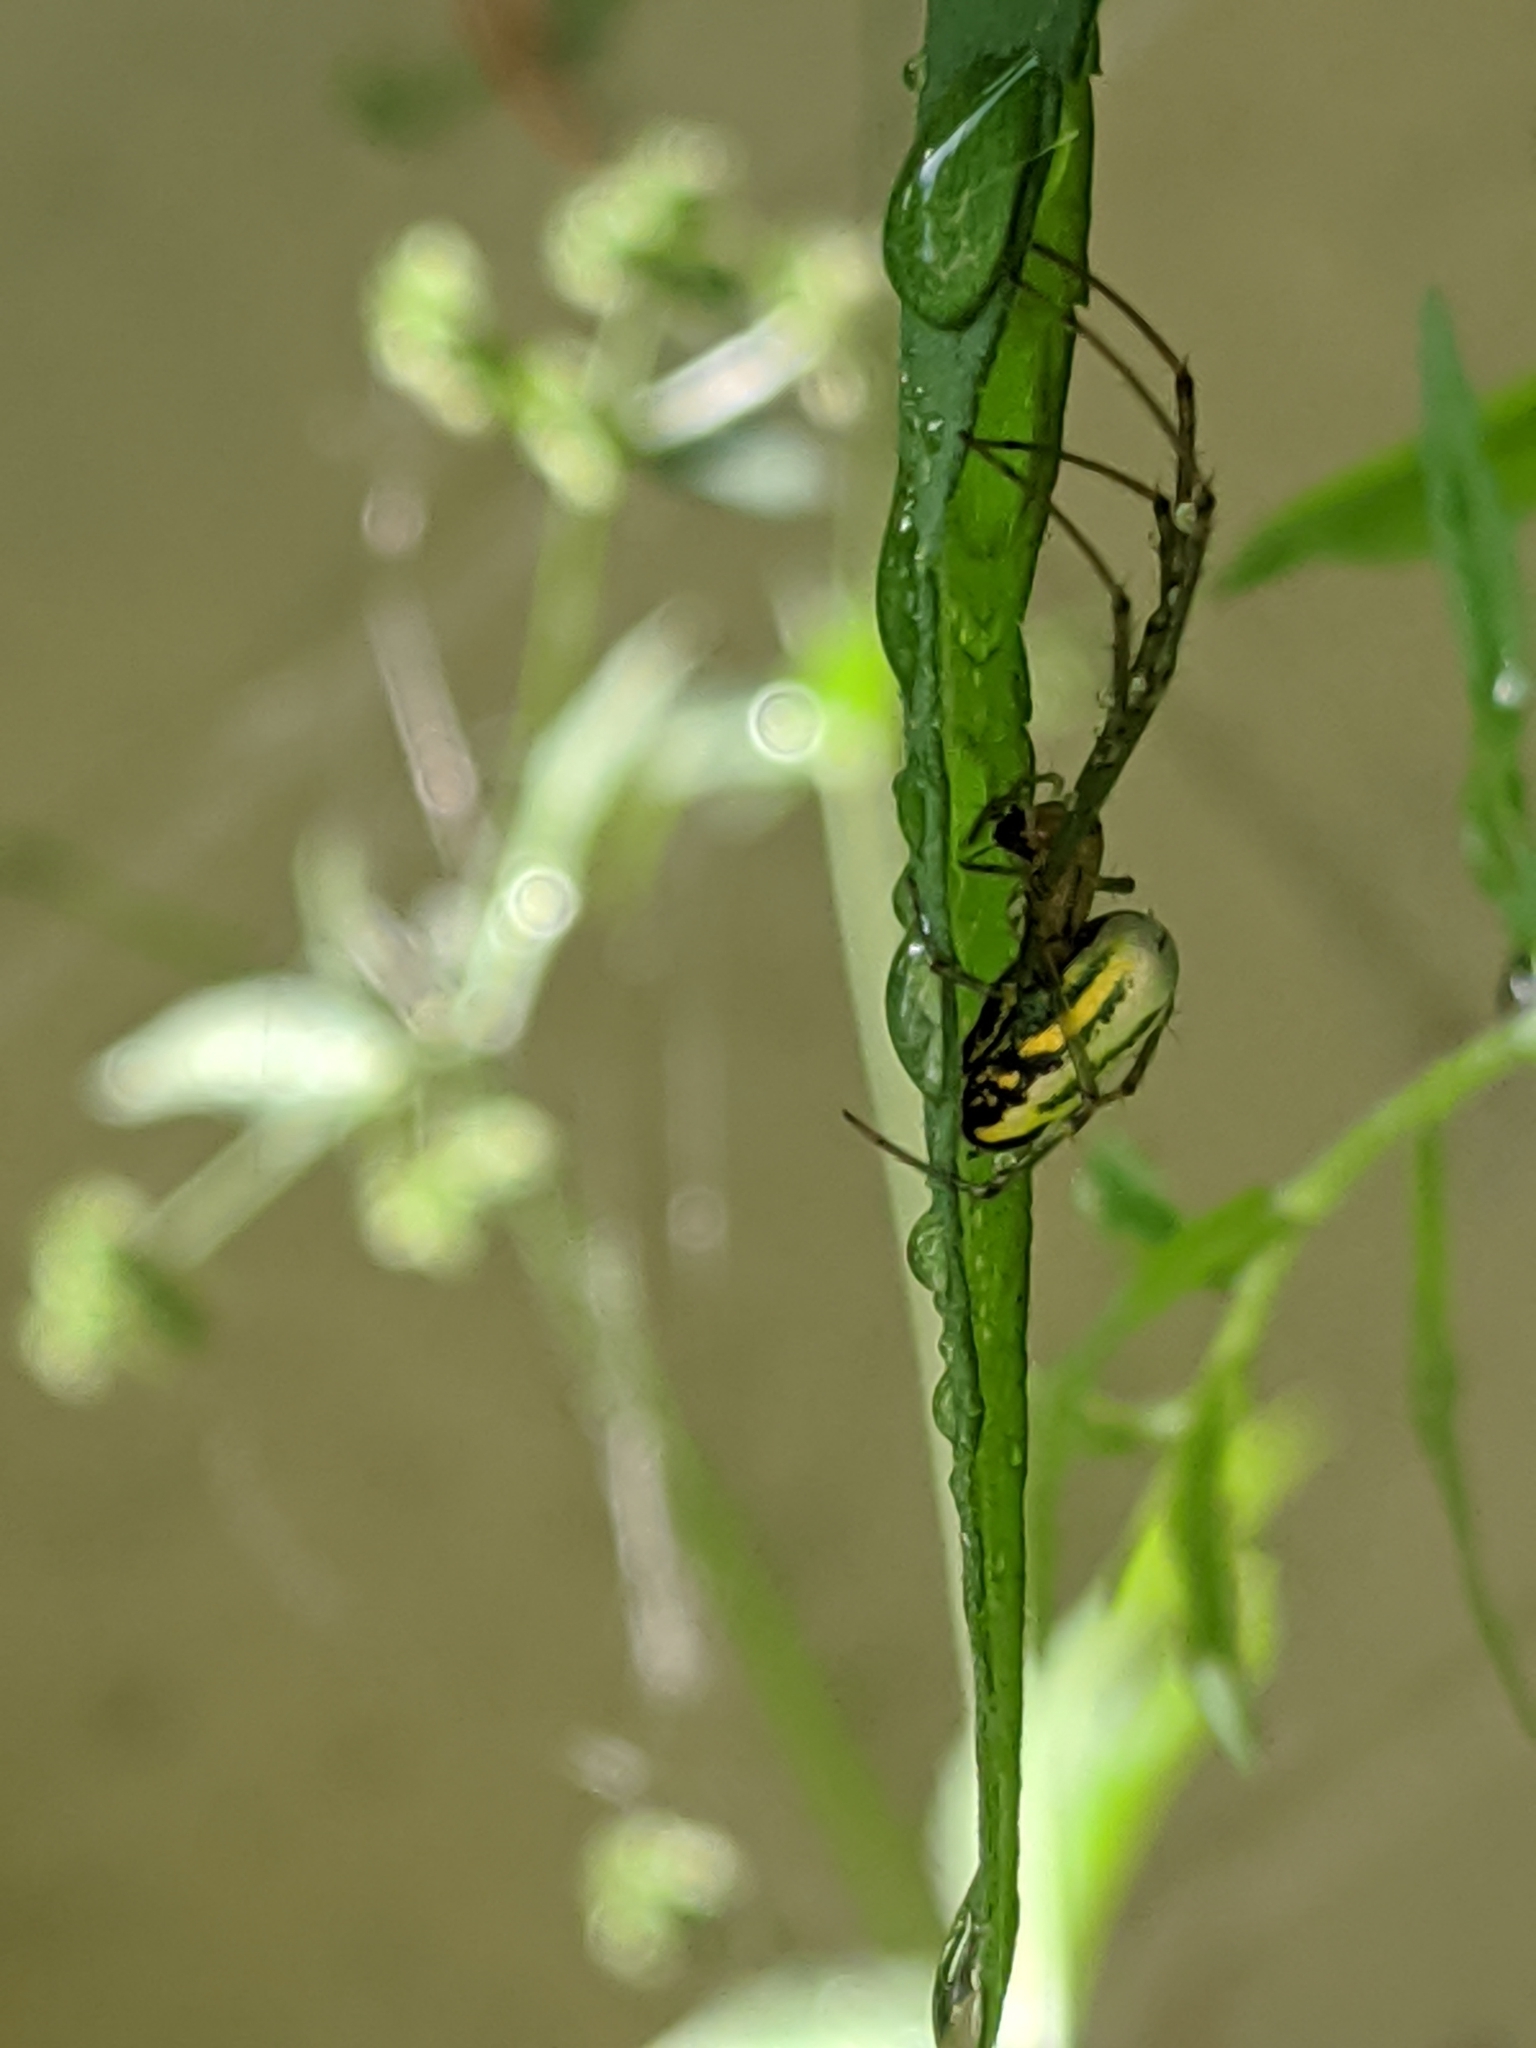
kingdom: Animalia
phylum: Arthropoda
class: Arachnida
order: Araneae
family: Tetragnathidae
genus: Leucauge
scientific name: Leucauge venusta
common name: Longjawed orb weavers
